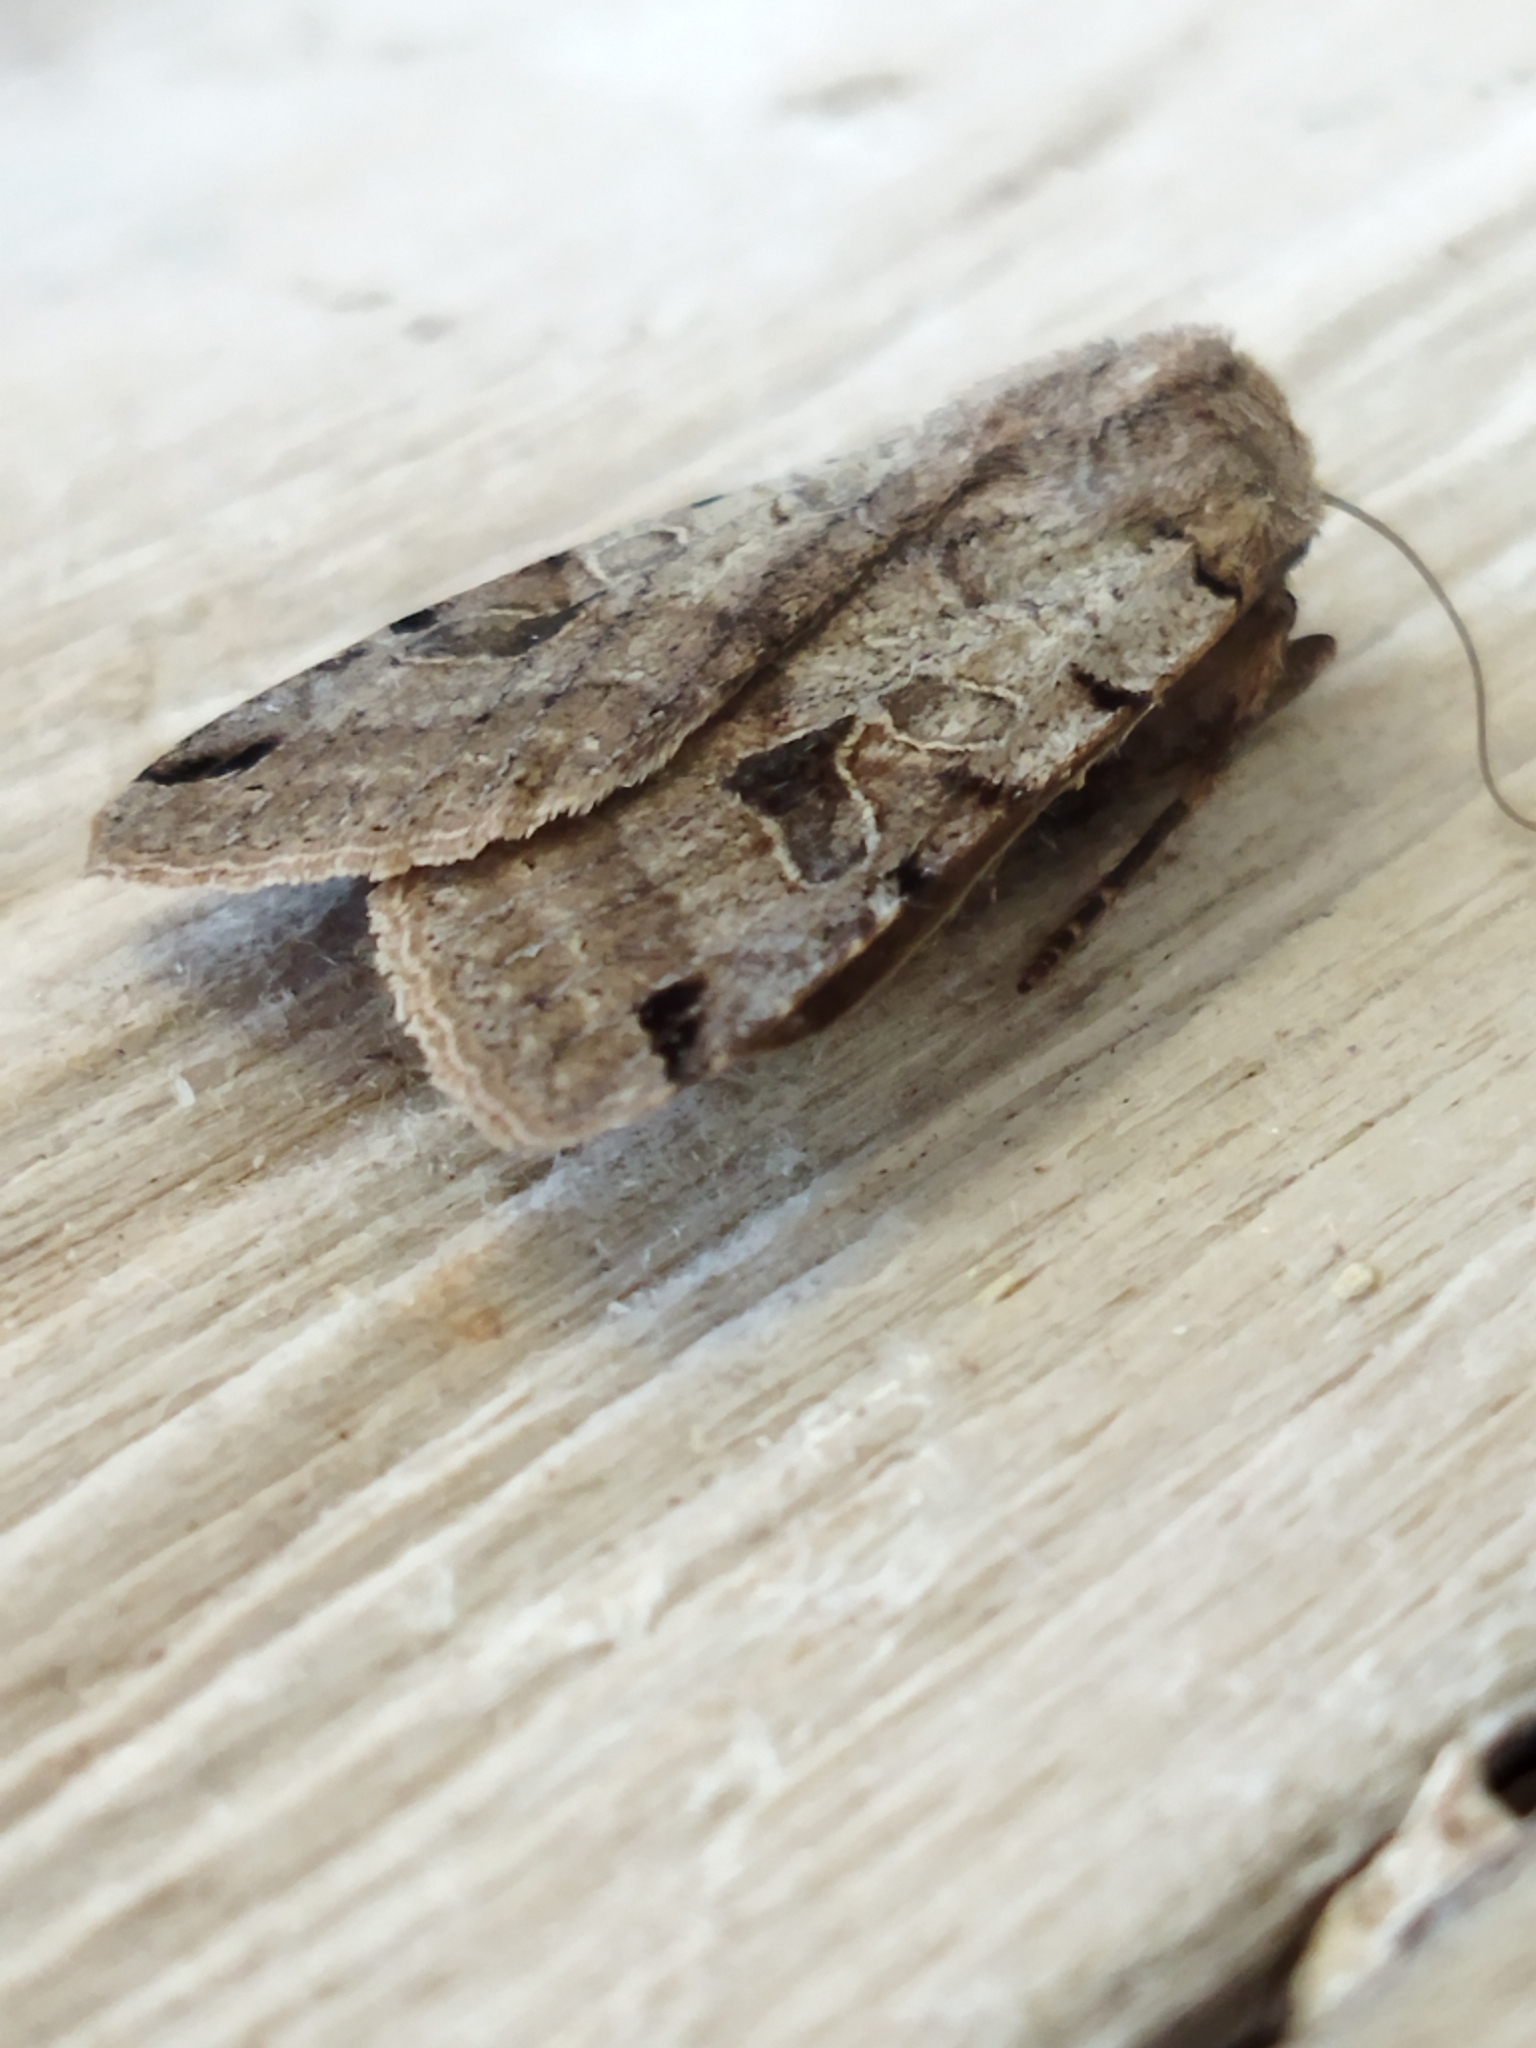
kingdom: Animalia
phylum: Arthropoda
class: Insecta
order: Lepidoptera
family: Noctuidae
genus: Agrochola
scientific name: Agrochola litura
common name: Brown-spot pinion
